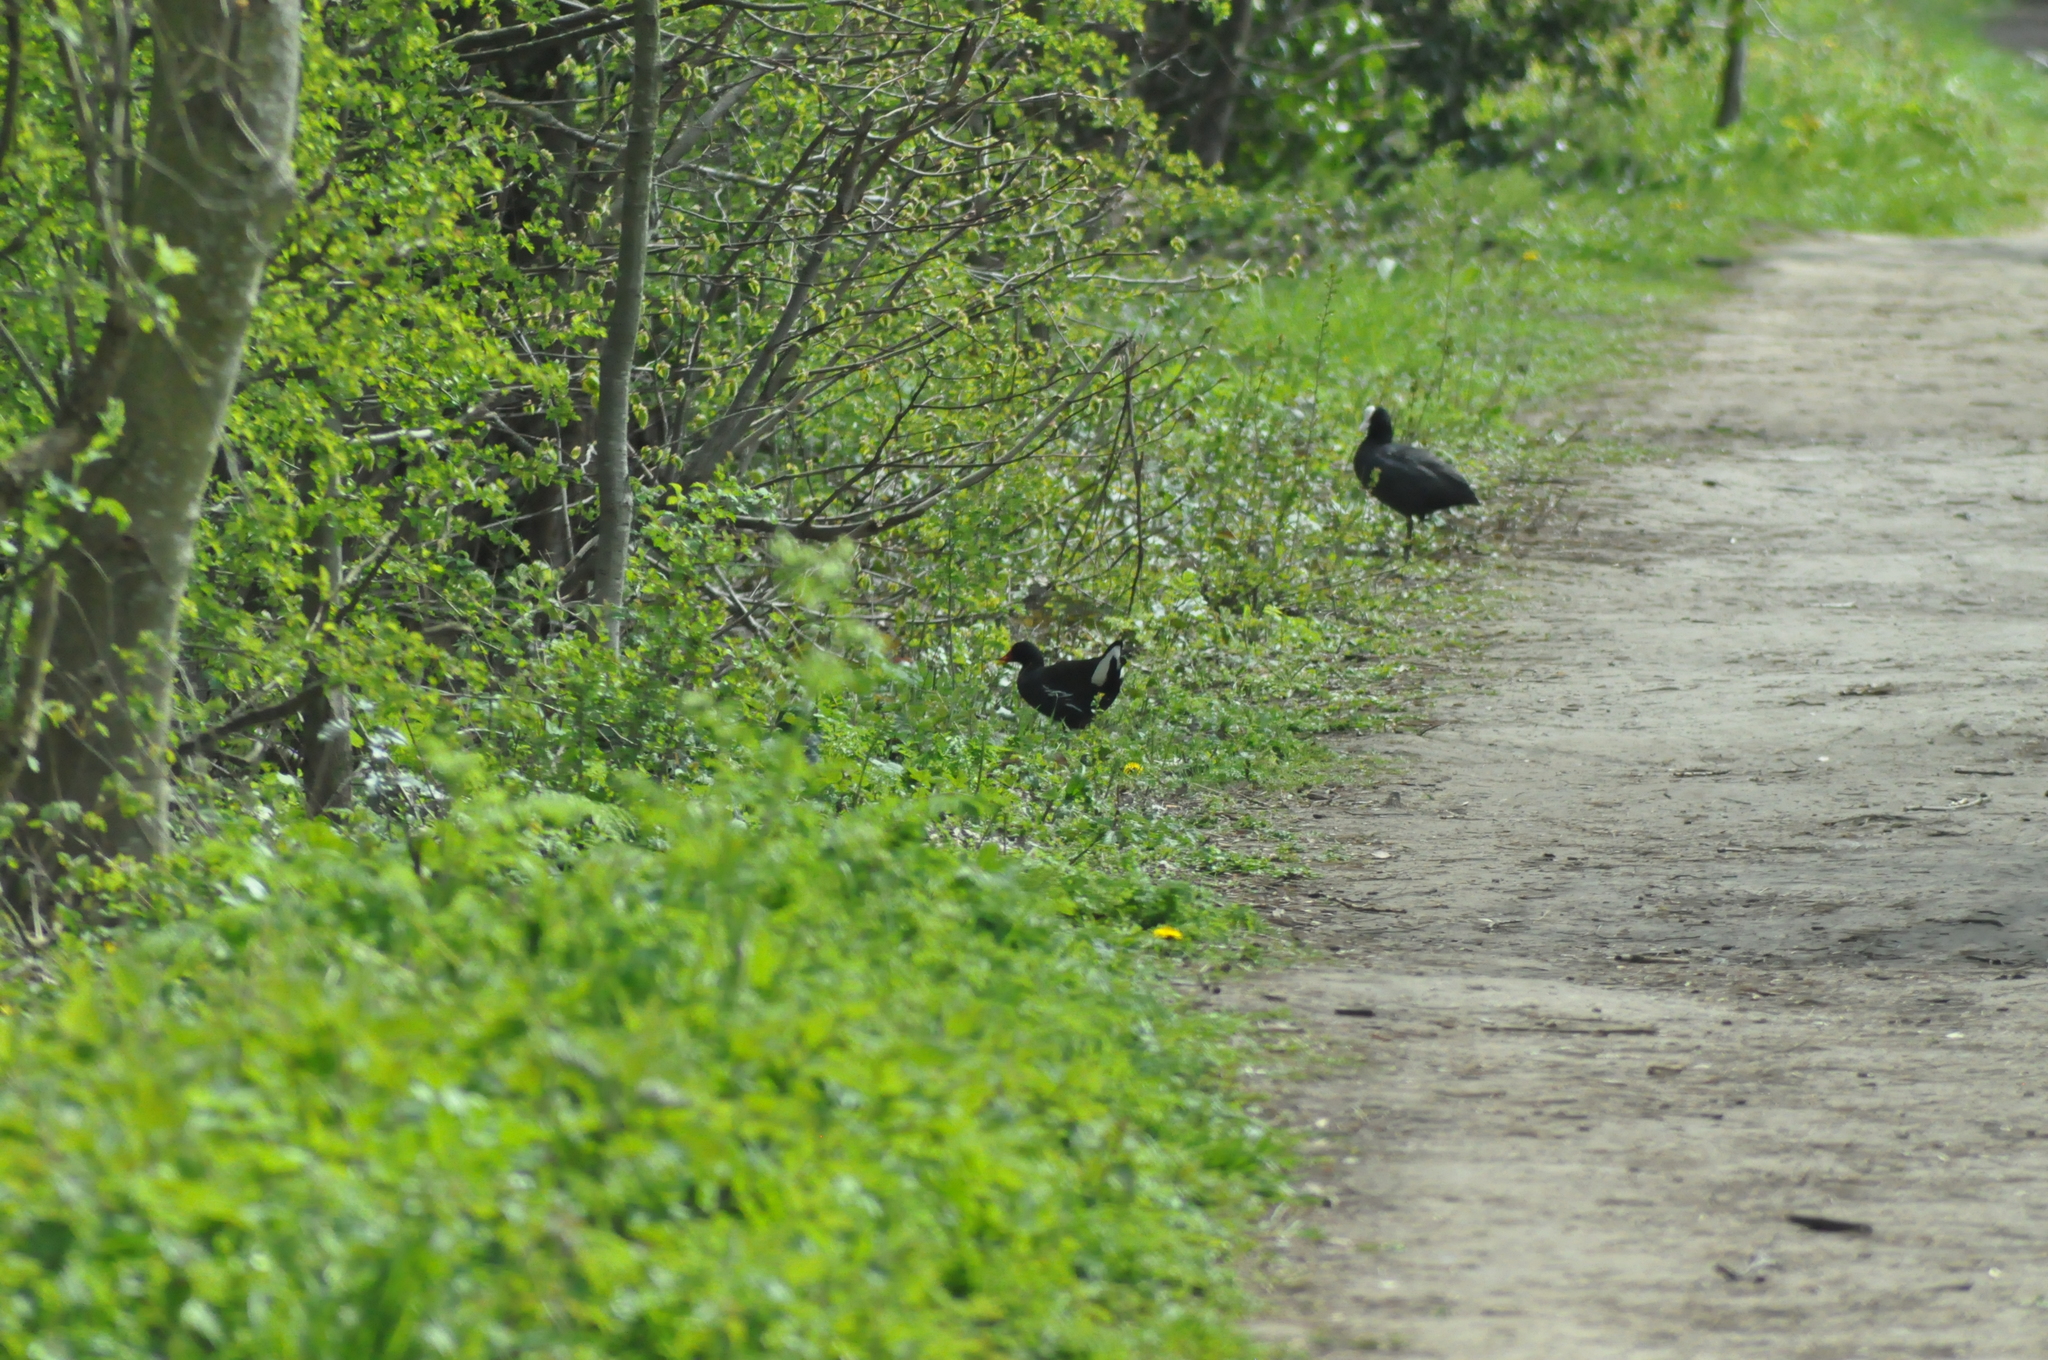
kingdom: Animalia
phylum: Chordata
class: Aves
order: Gruiformes
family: Rallidae
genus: Gallinula
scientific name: Gallinula chloropus
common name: Common moorhen
